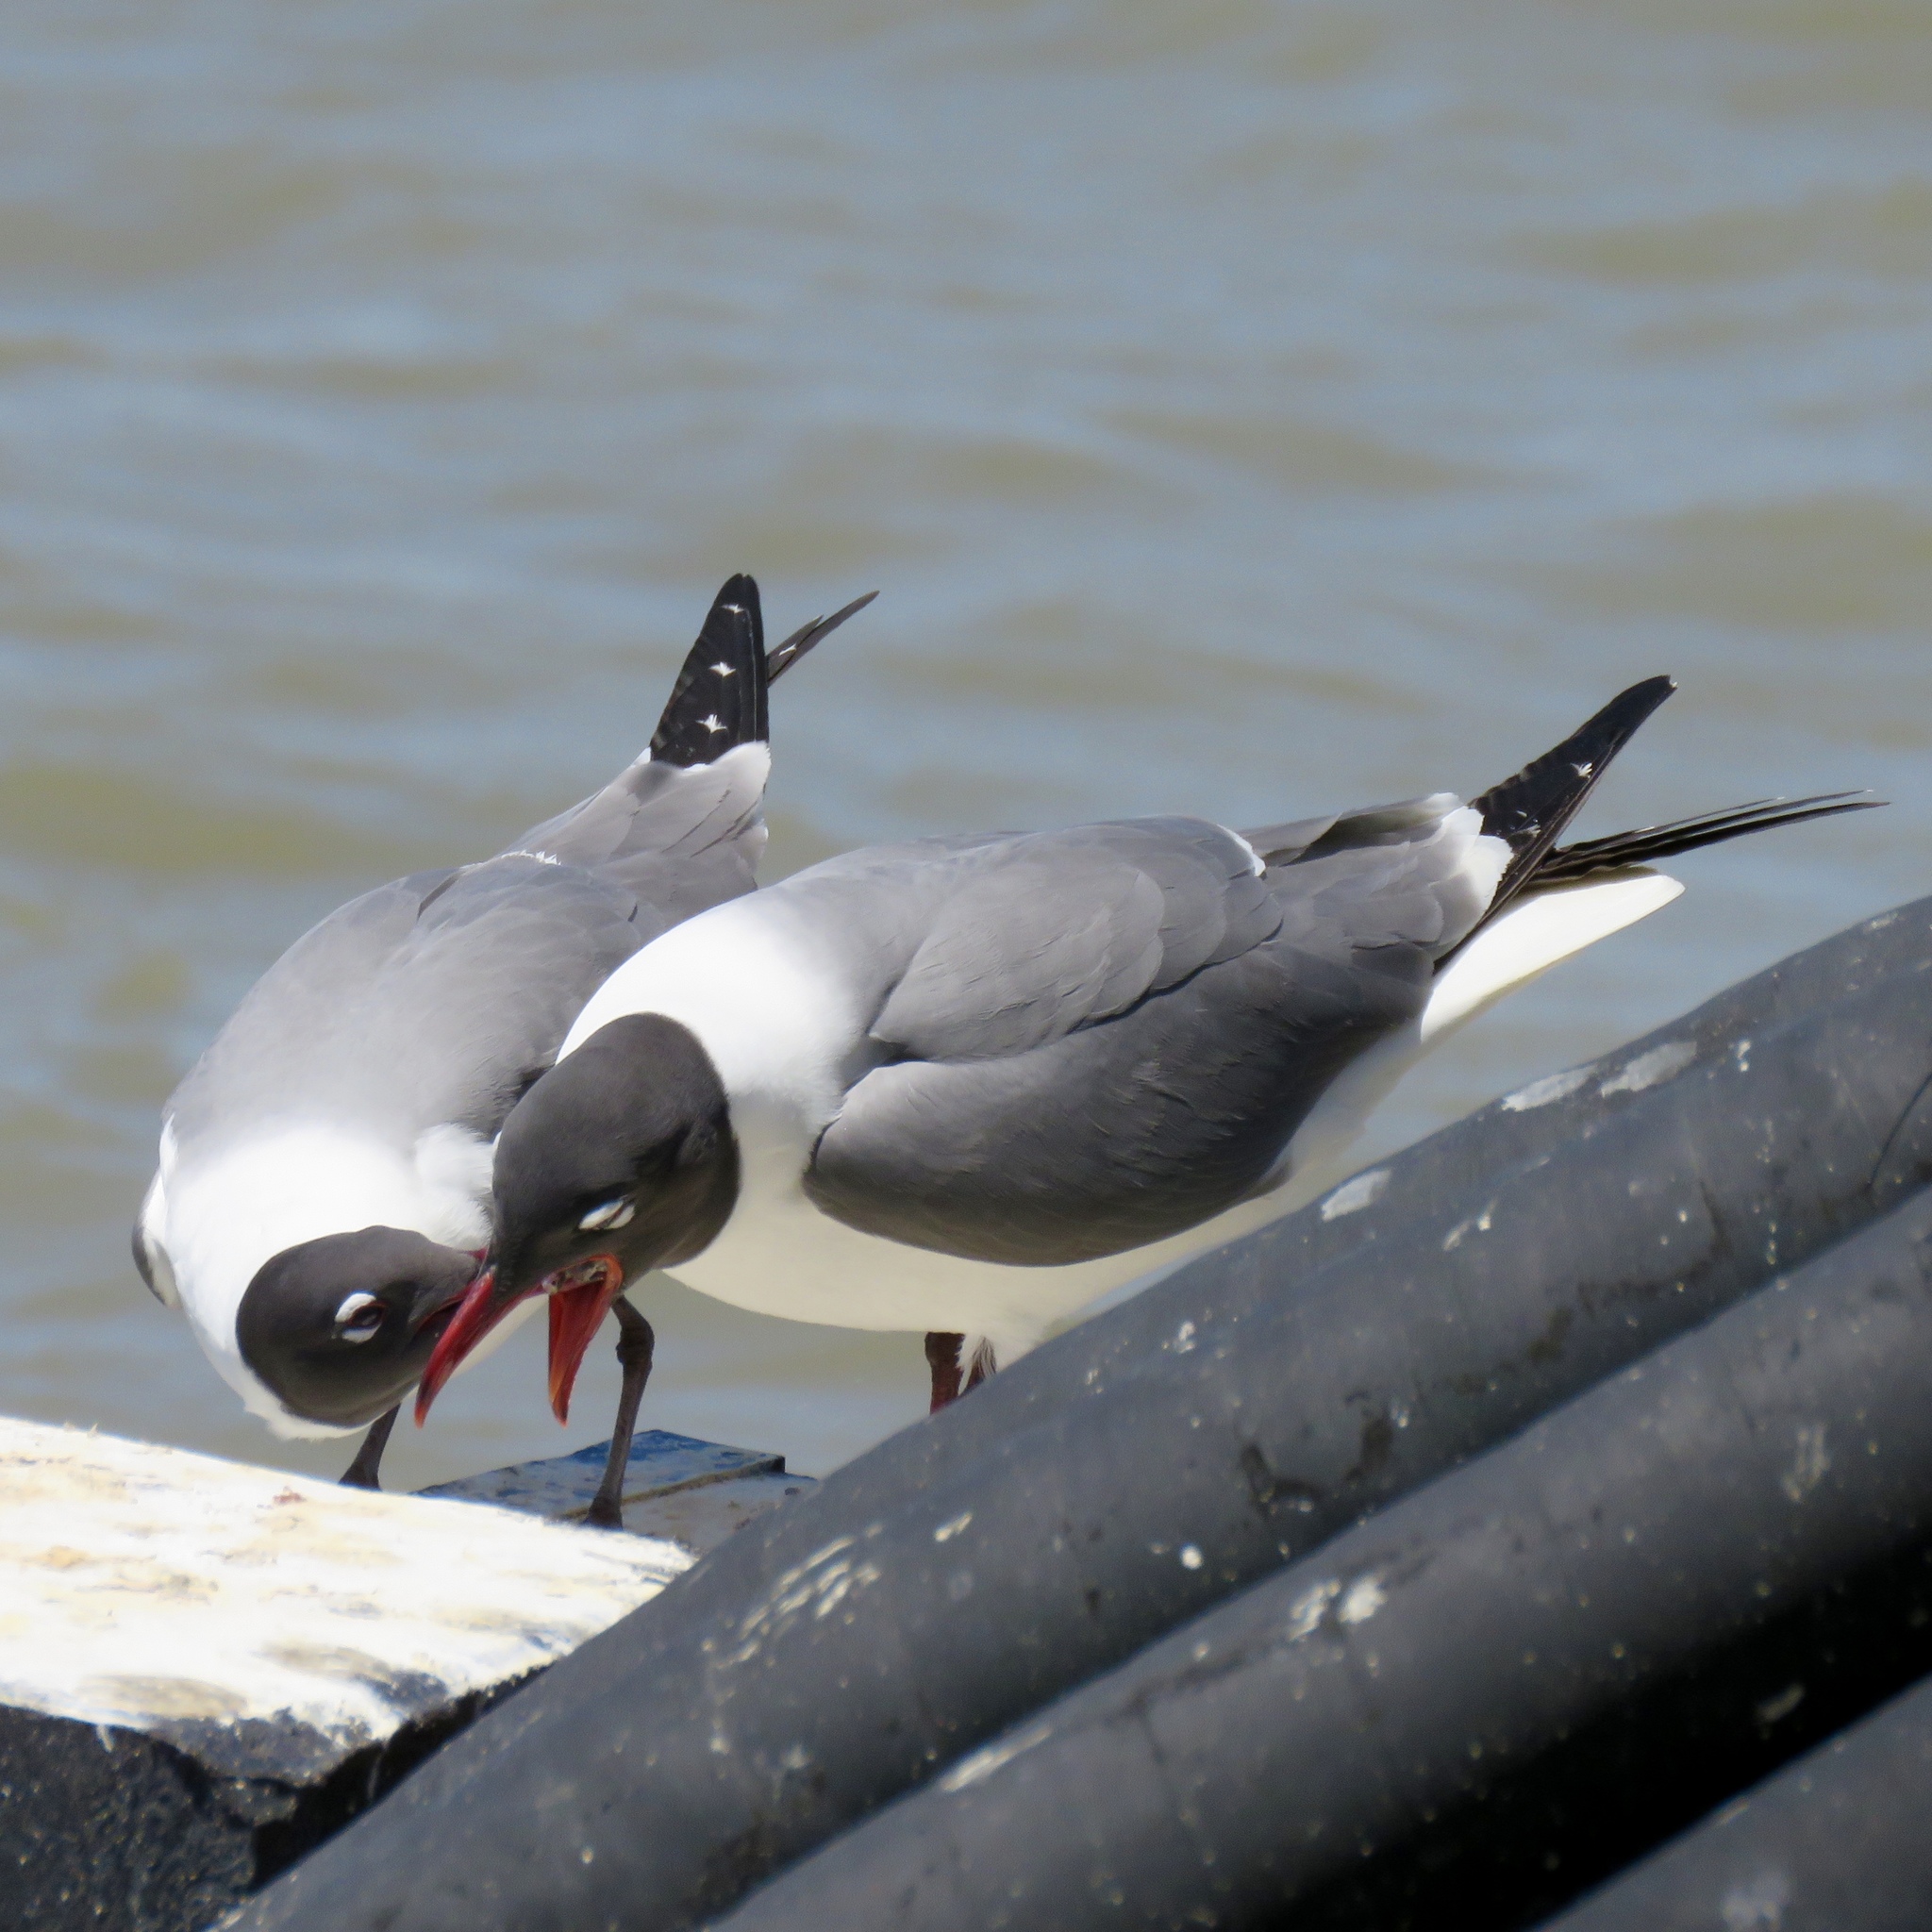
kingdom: Animalia
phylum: Chordata
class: Aves
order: Charadriiformes
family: Laridae
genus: Leucophaeus
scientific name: Leucophaeus atricilla
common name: Laughing gull
